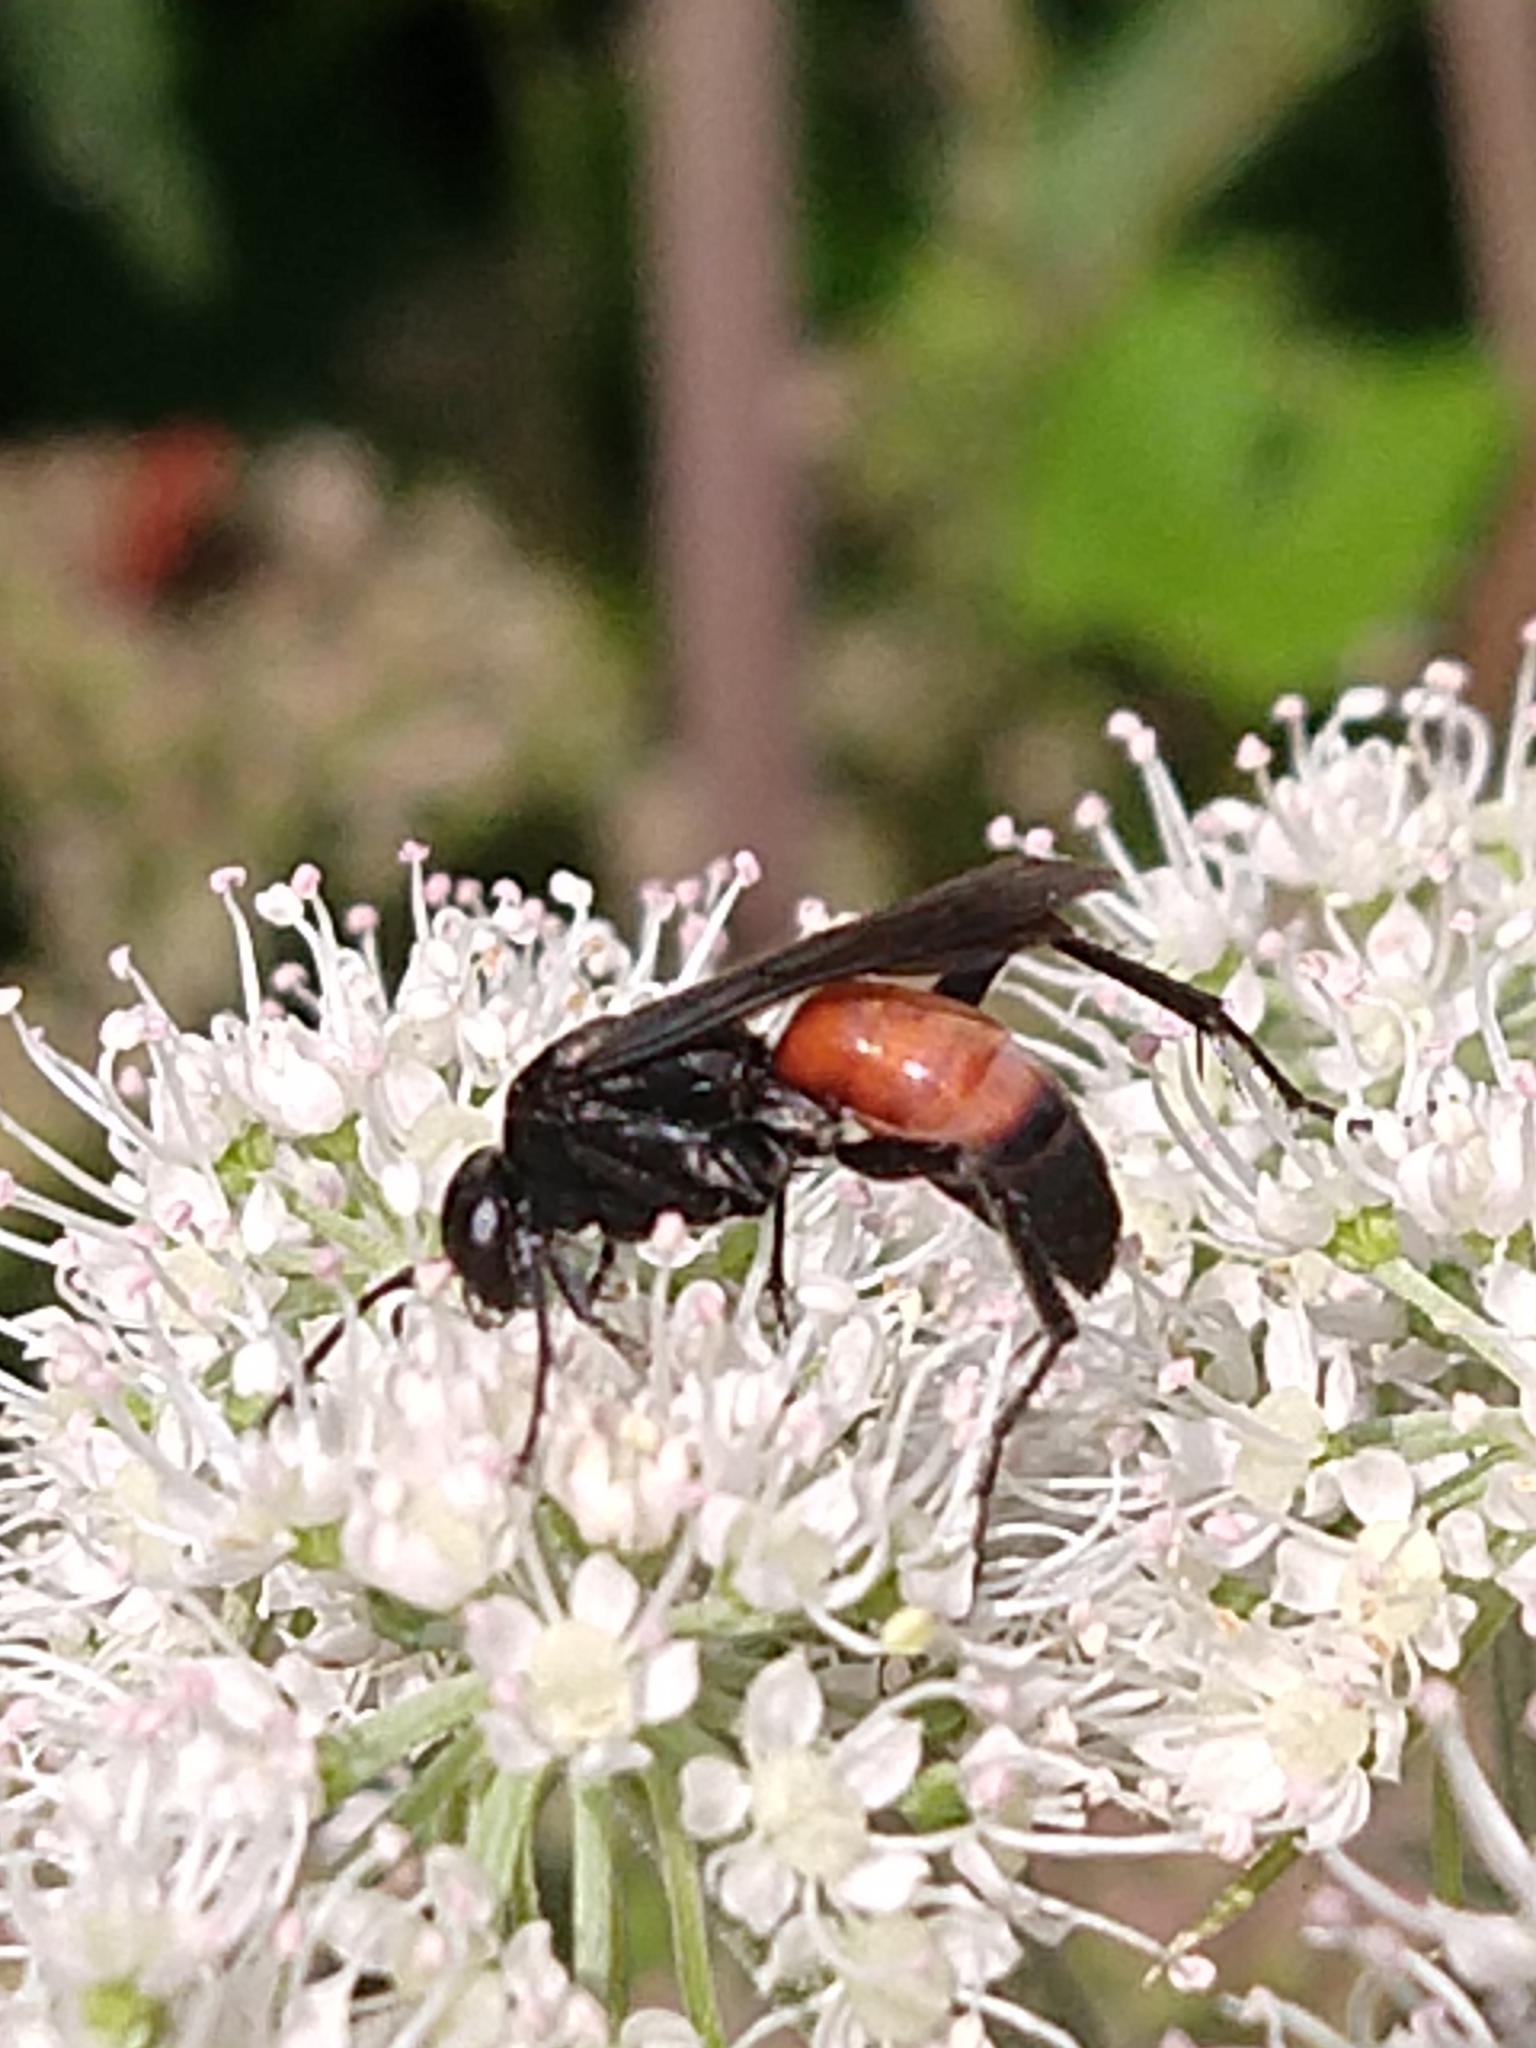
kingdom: Animalia
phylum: Arthropoda
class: Insecta
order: Hymenoptera
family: Pompilidae
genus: Anoplius
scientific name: Anoplius infuscatus
